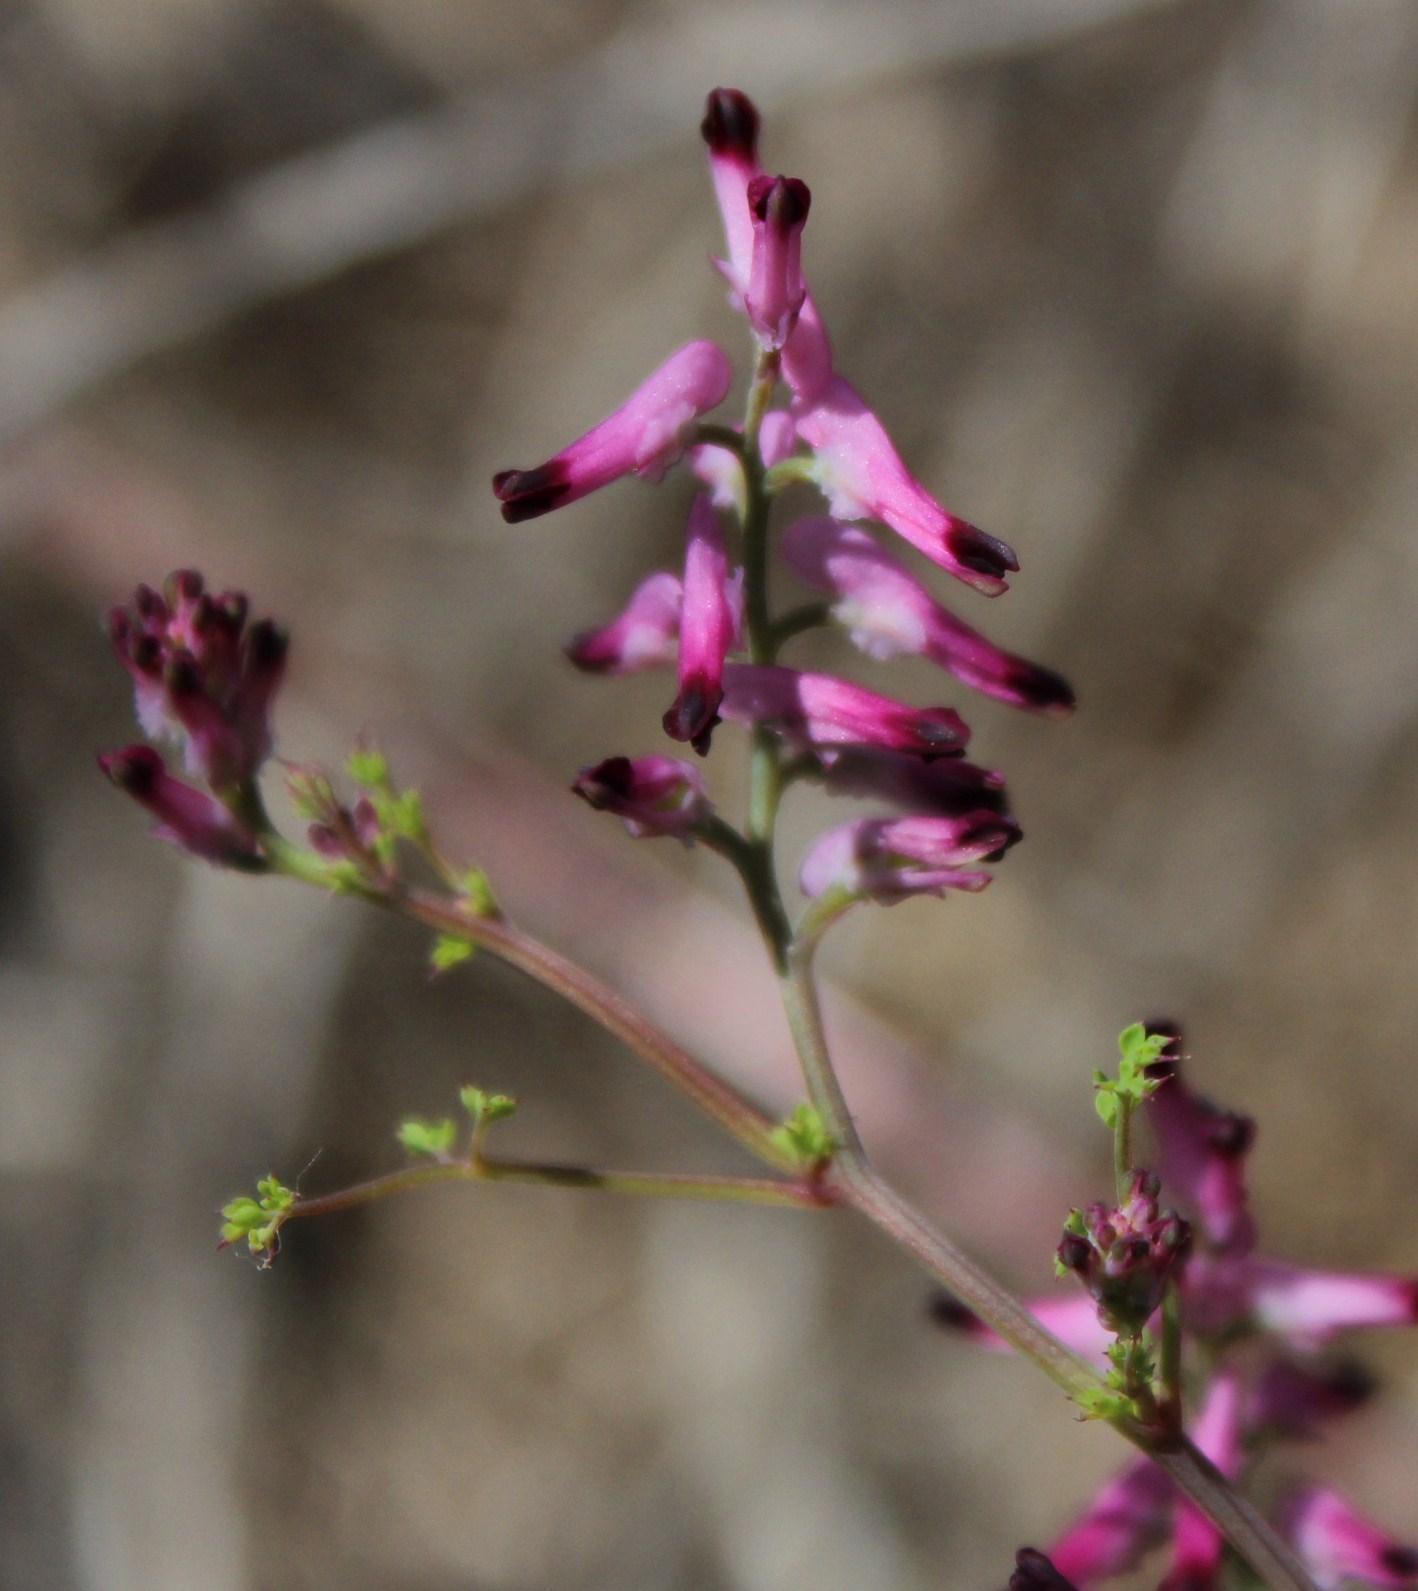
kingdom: Plantae
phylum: Tracheophyta
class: Magnoliopsida
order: Ranunculales
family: Papaveraceae
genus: Fumaria
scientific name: Fumaria muralis
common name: Common ramping-fumitory
